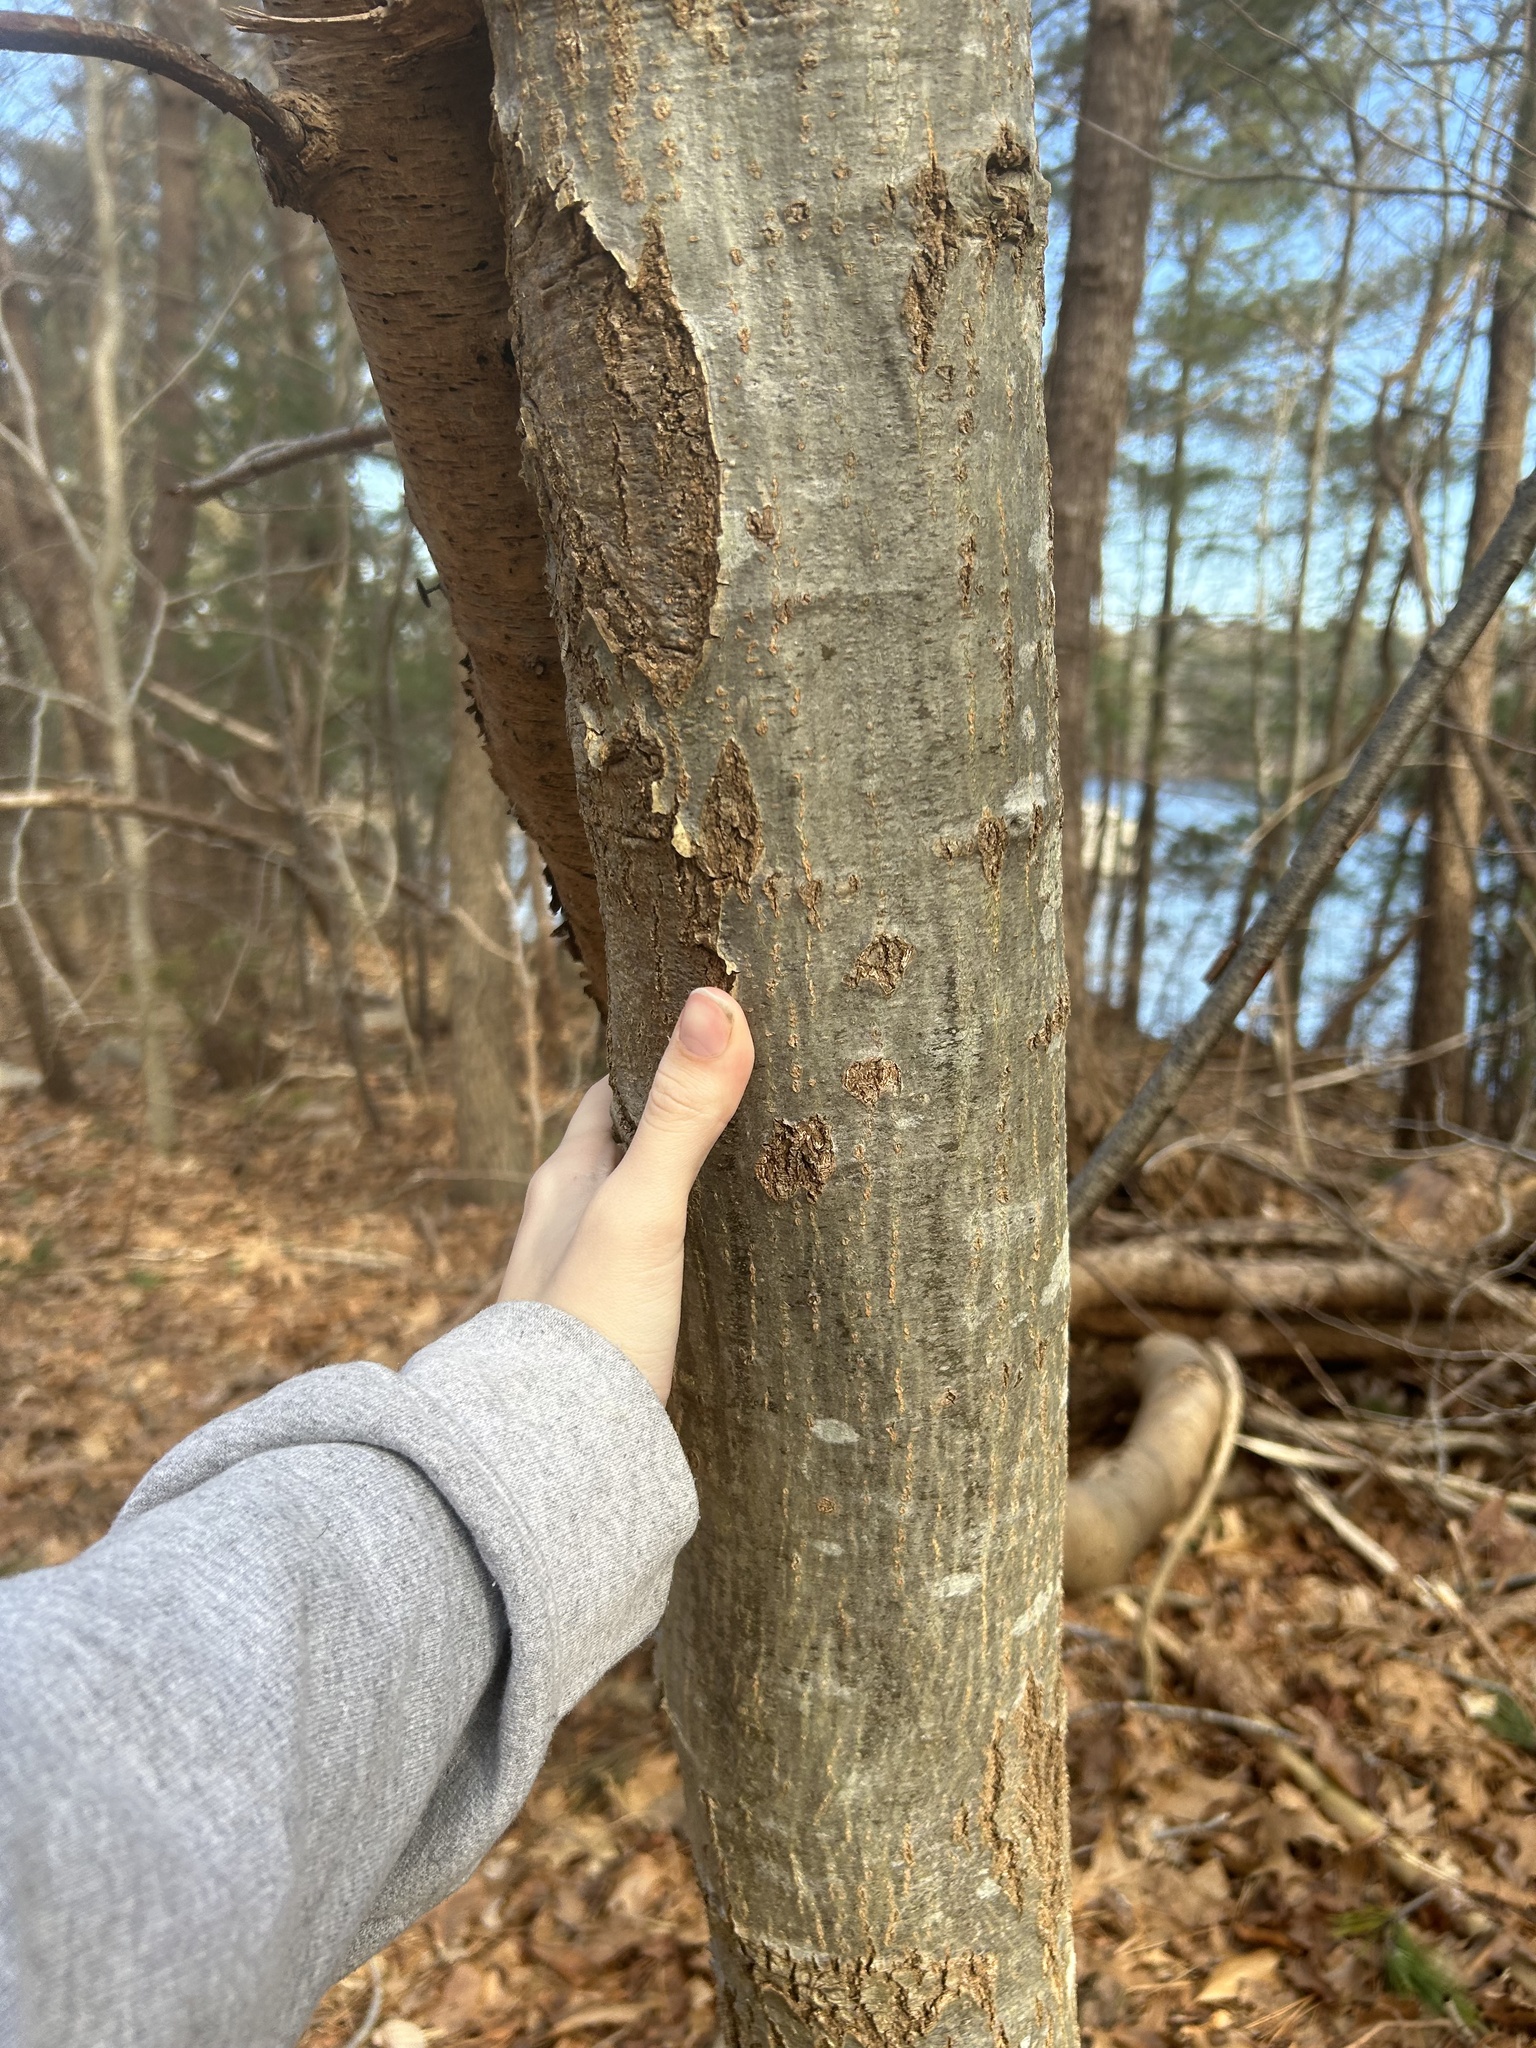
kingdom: Plantae
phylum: Tracheophyta
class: Magnoliopsida
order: Fagales
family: Fagaceae
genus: Quercus
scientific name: Quercus rubra
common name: Red oak
